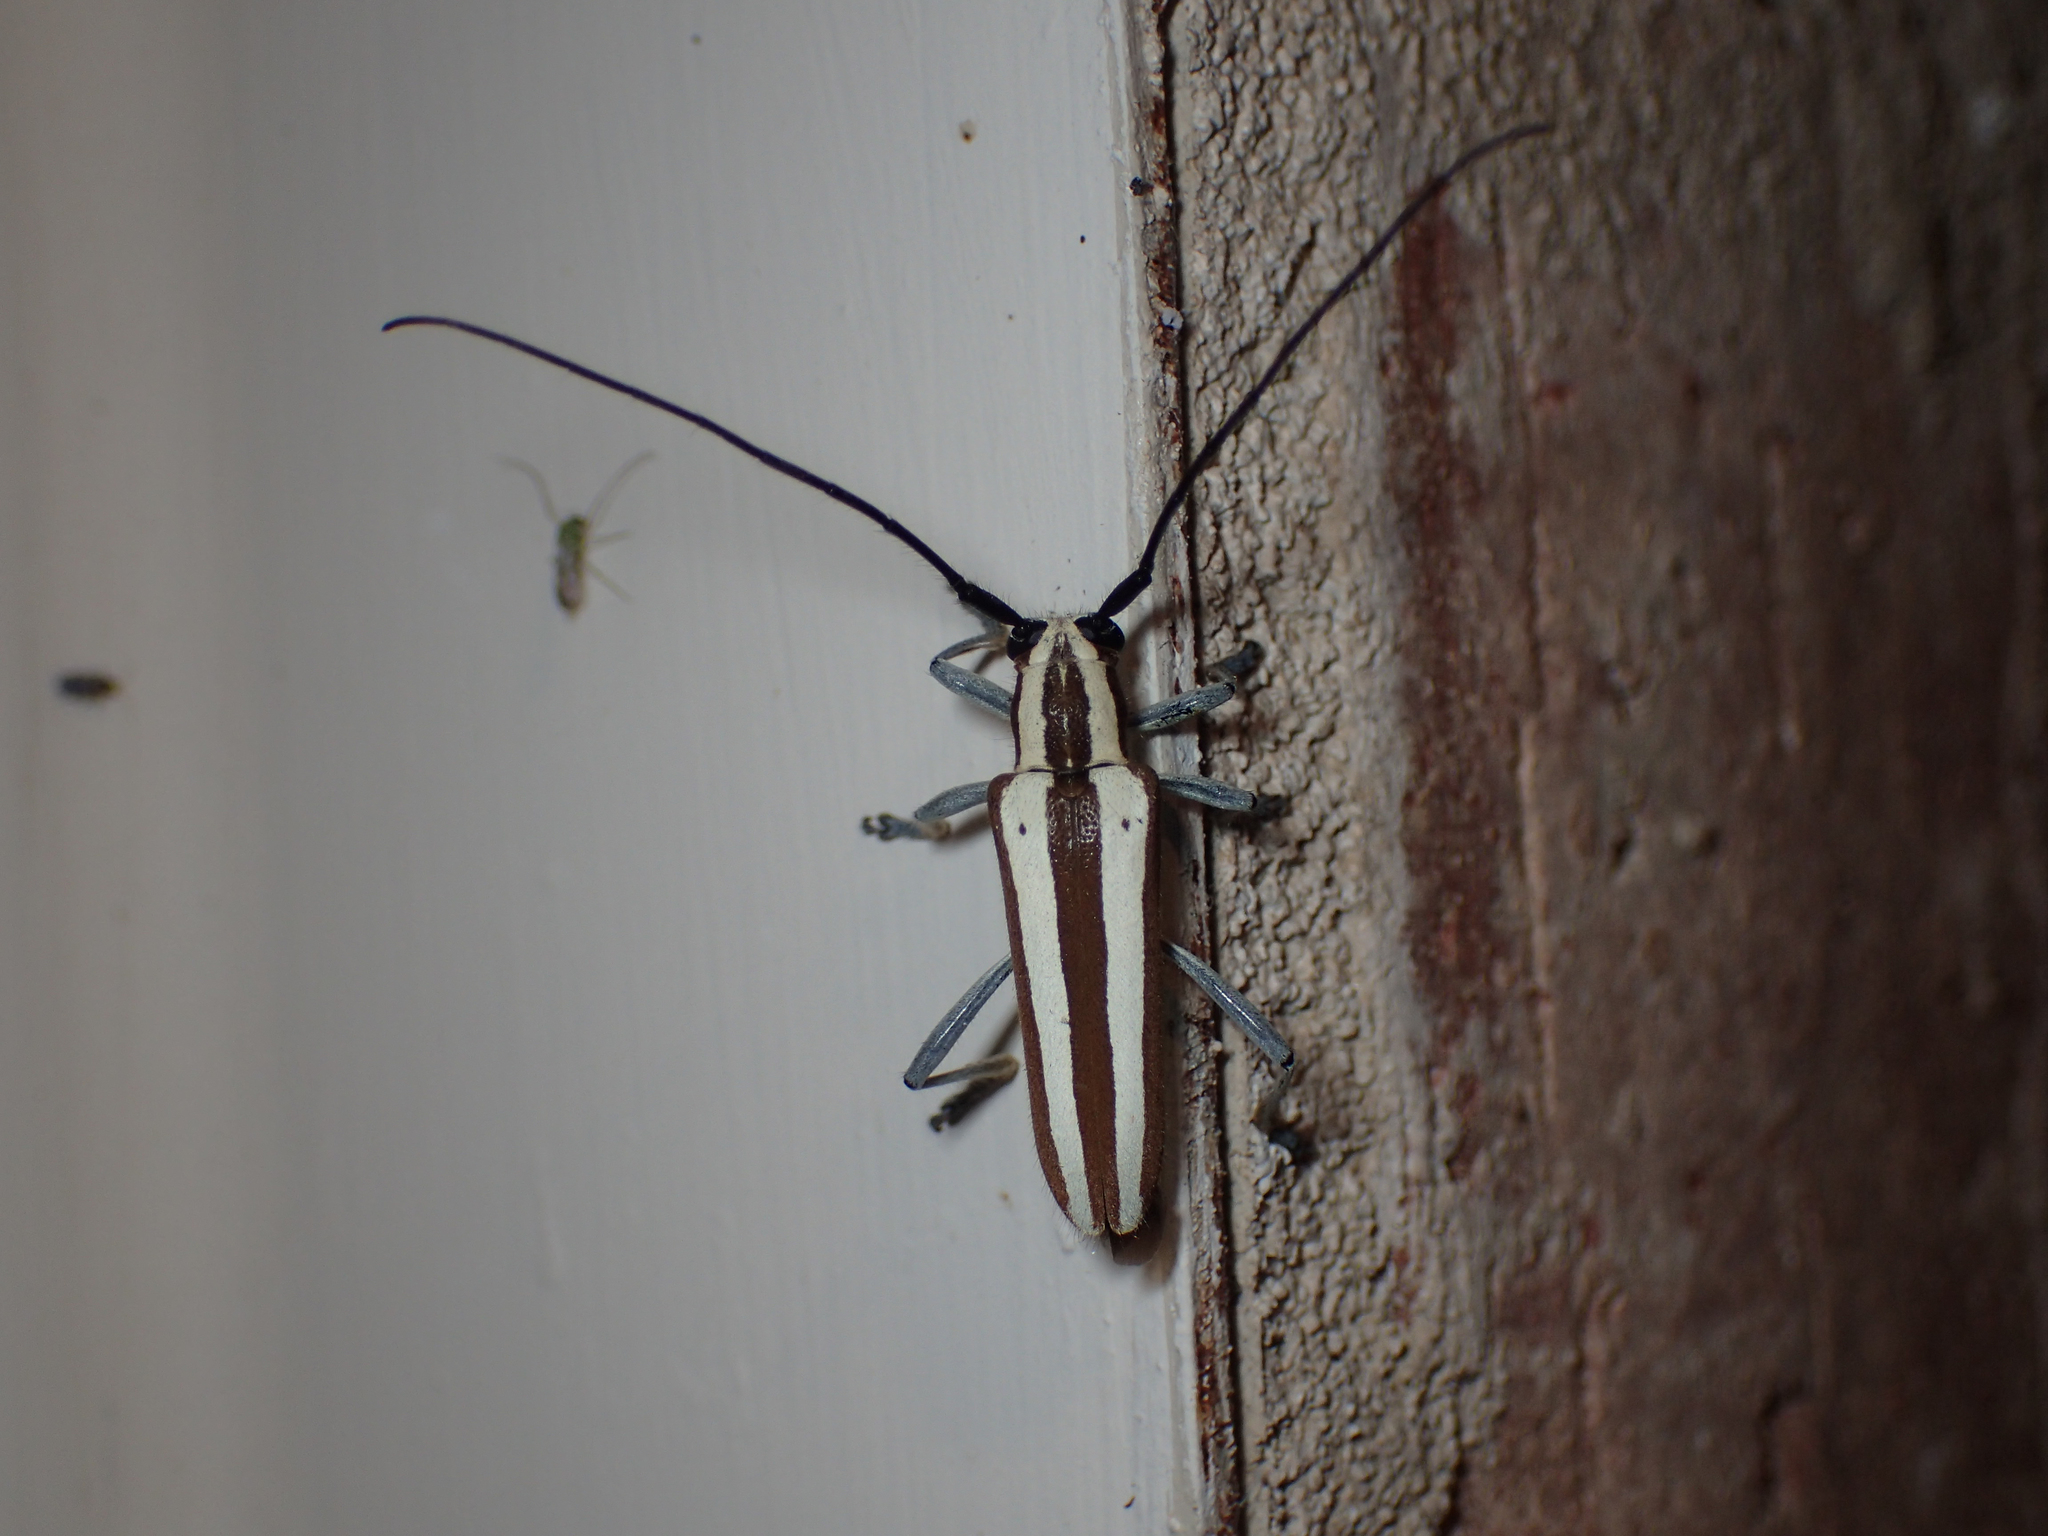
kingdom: Animalia
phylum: Arthropoda
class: Insecta
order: Coleoptera
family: Cerambycidae
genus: Saperda
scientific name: Saperda candida
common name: Round-headed borer
